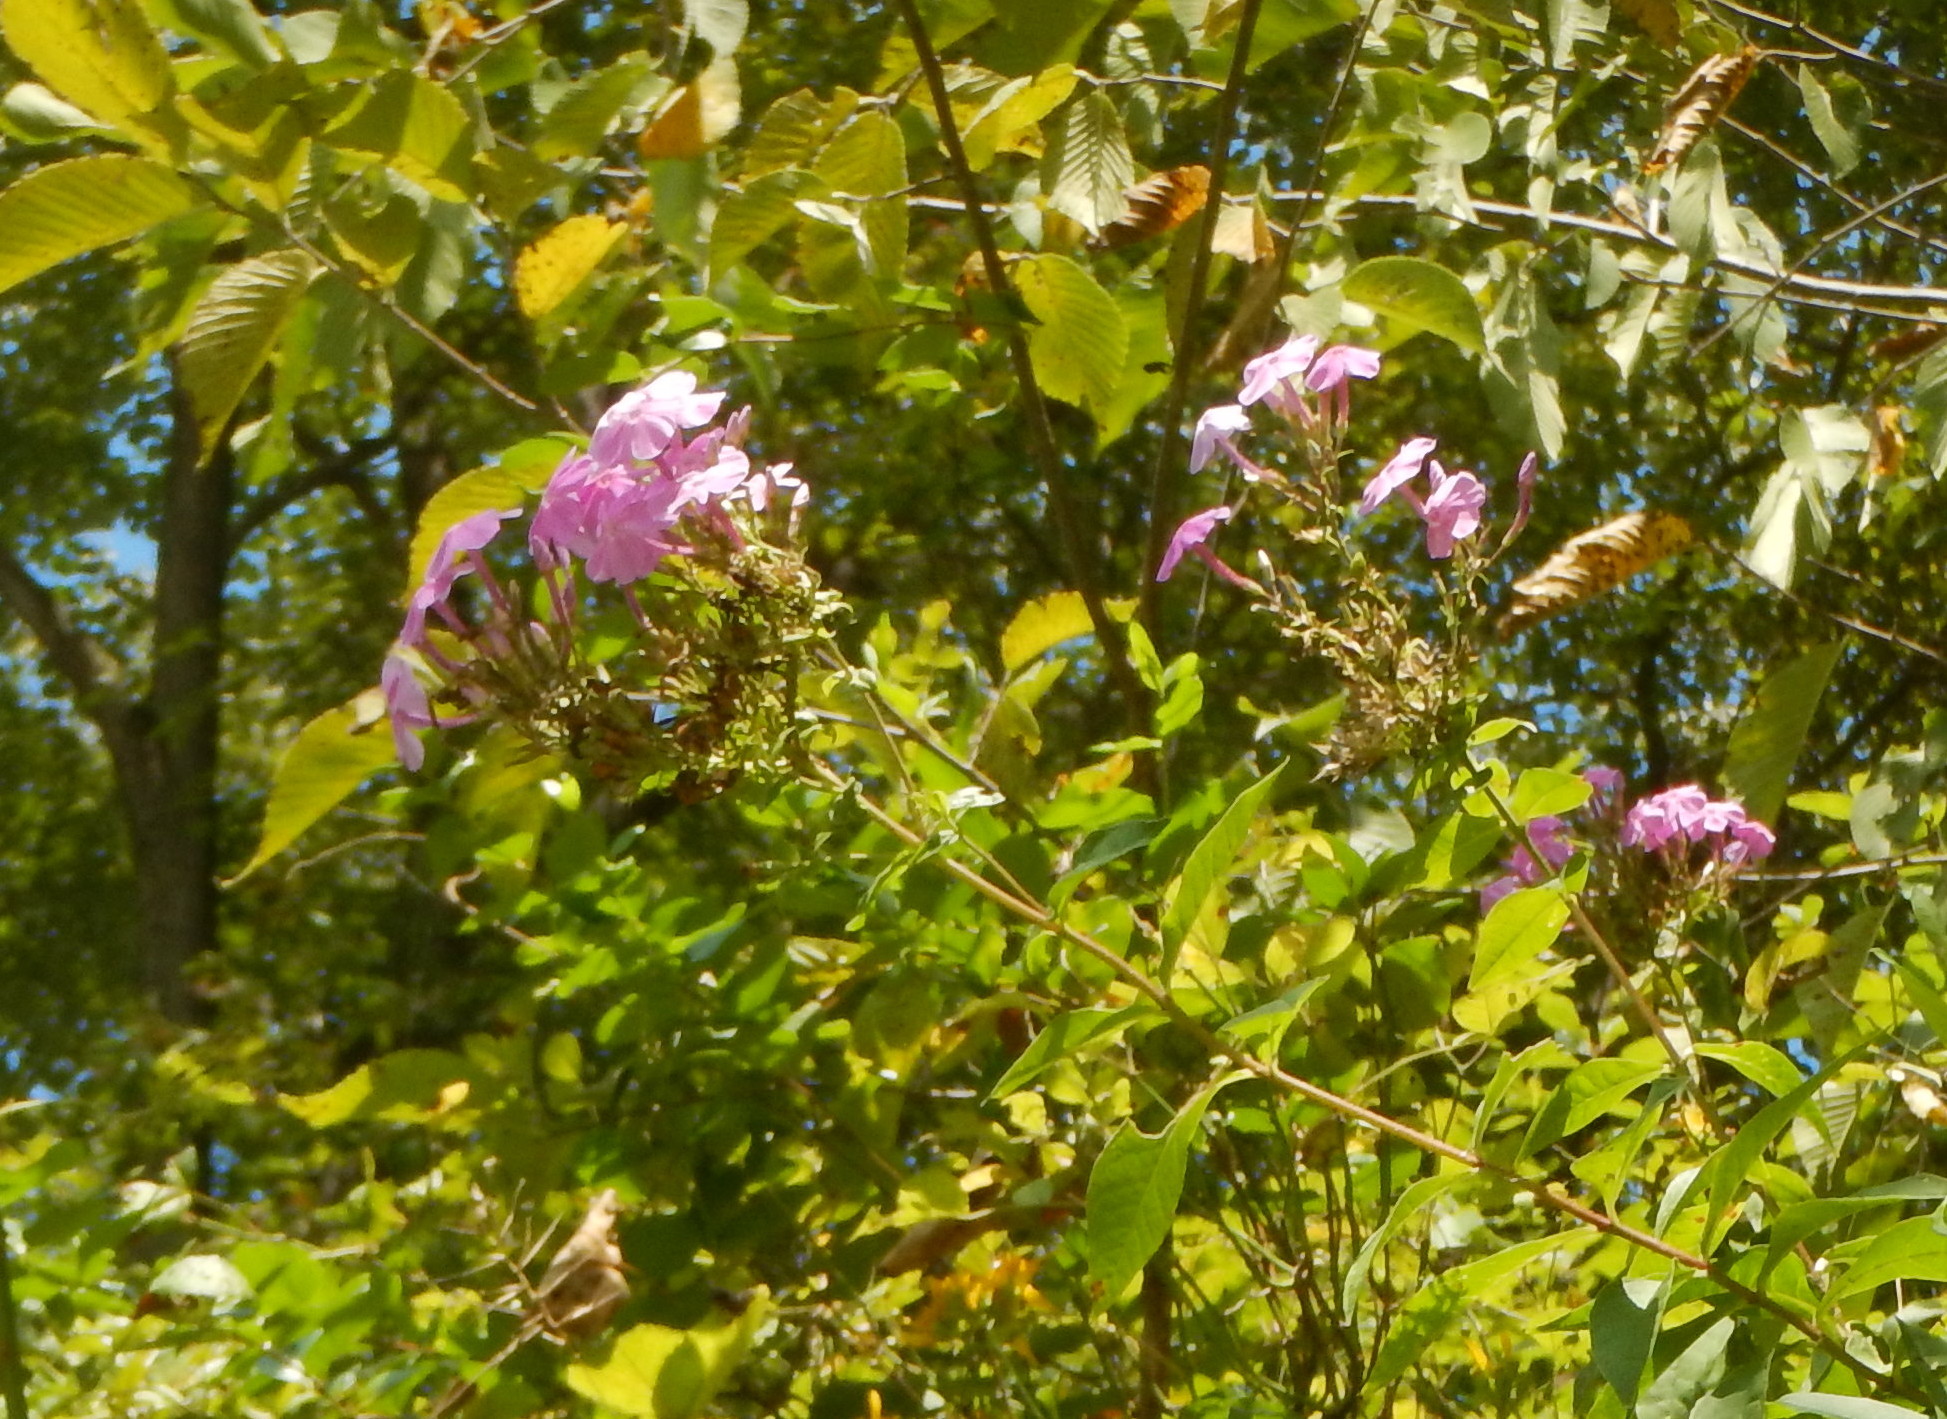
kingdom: Plantae
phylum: Tracheophyta
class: Magnoliopsida
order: Ericales
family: Polemoniaceae
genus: Phlox
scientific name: Phlox paniculata
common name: Fall phlox
